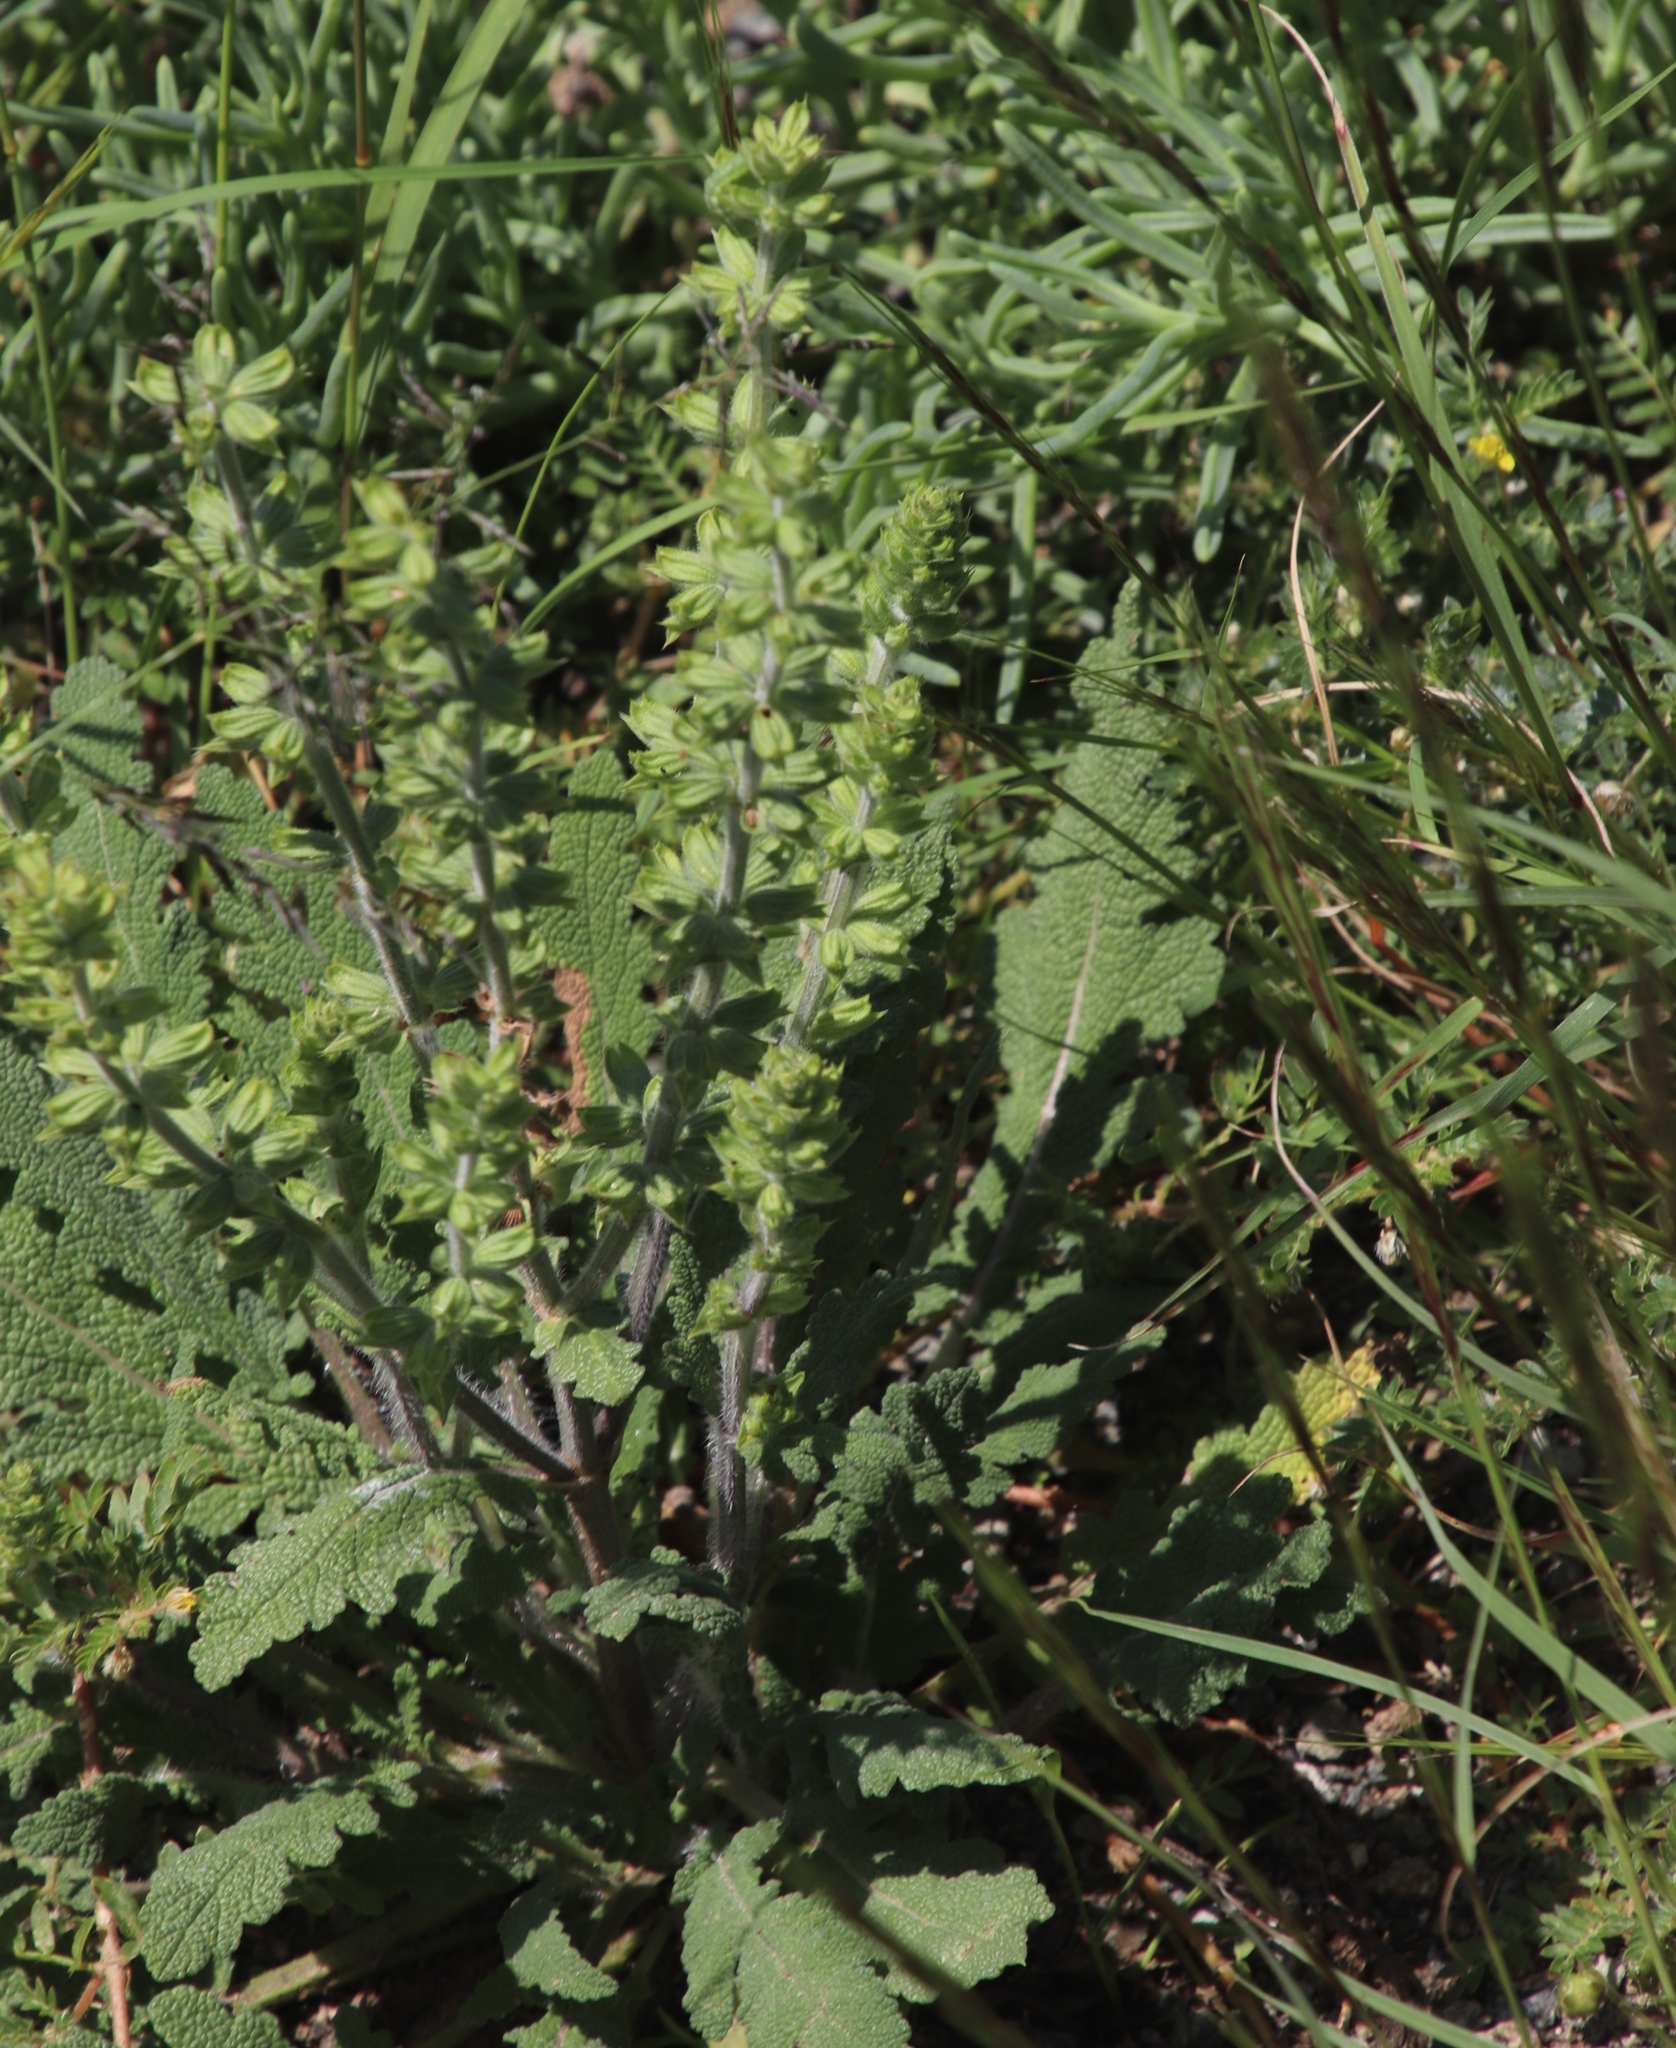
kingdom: Plantae
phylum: Tracheophyta
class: Magnoliopsida
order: Lamiales
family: Lamiaceae
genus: Salvia
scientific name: Salvia verbenaca
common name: Wild clary
